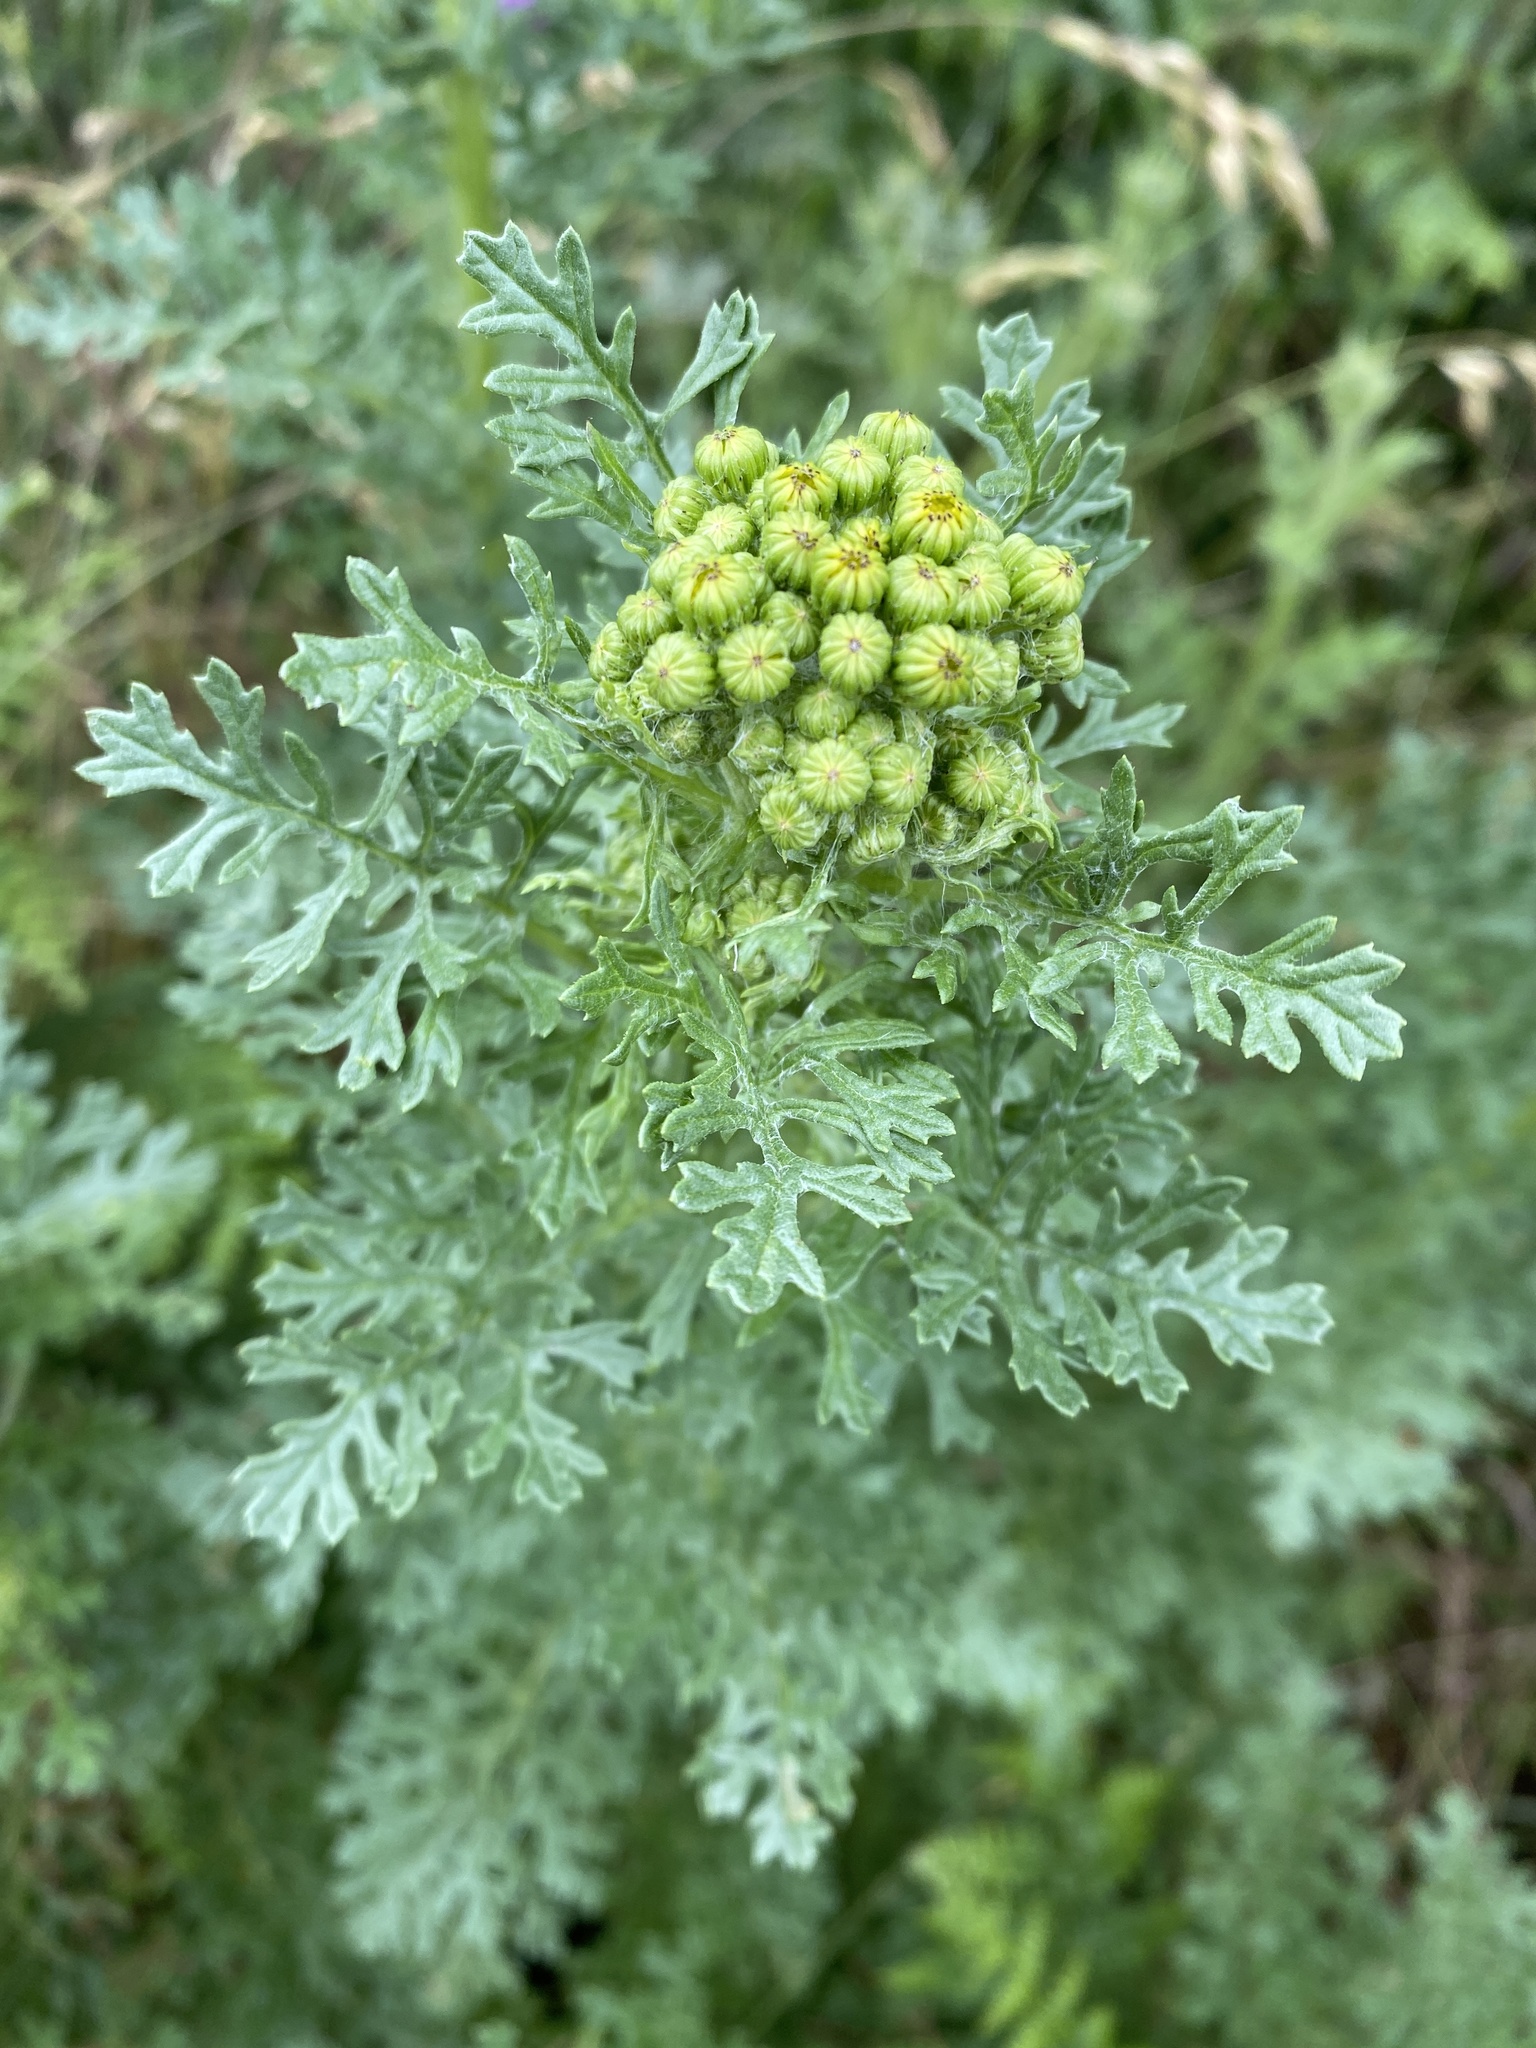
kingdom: Plantae
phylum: Tracheophyta
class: Magnoliopsida
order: Asterales
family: Asteraceae
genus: Jacobaea
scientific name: Jacobaea vulgaris
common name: Stinking willie
